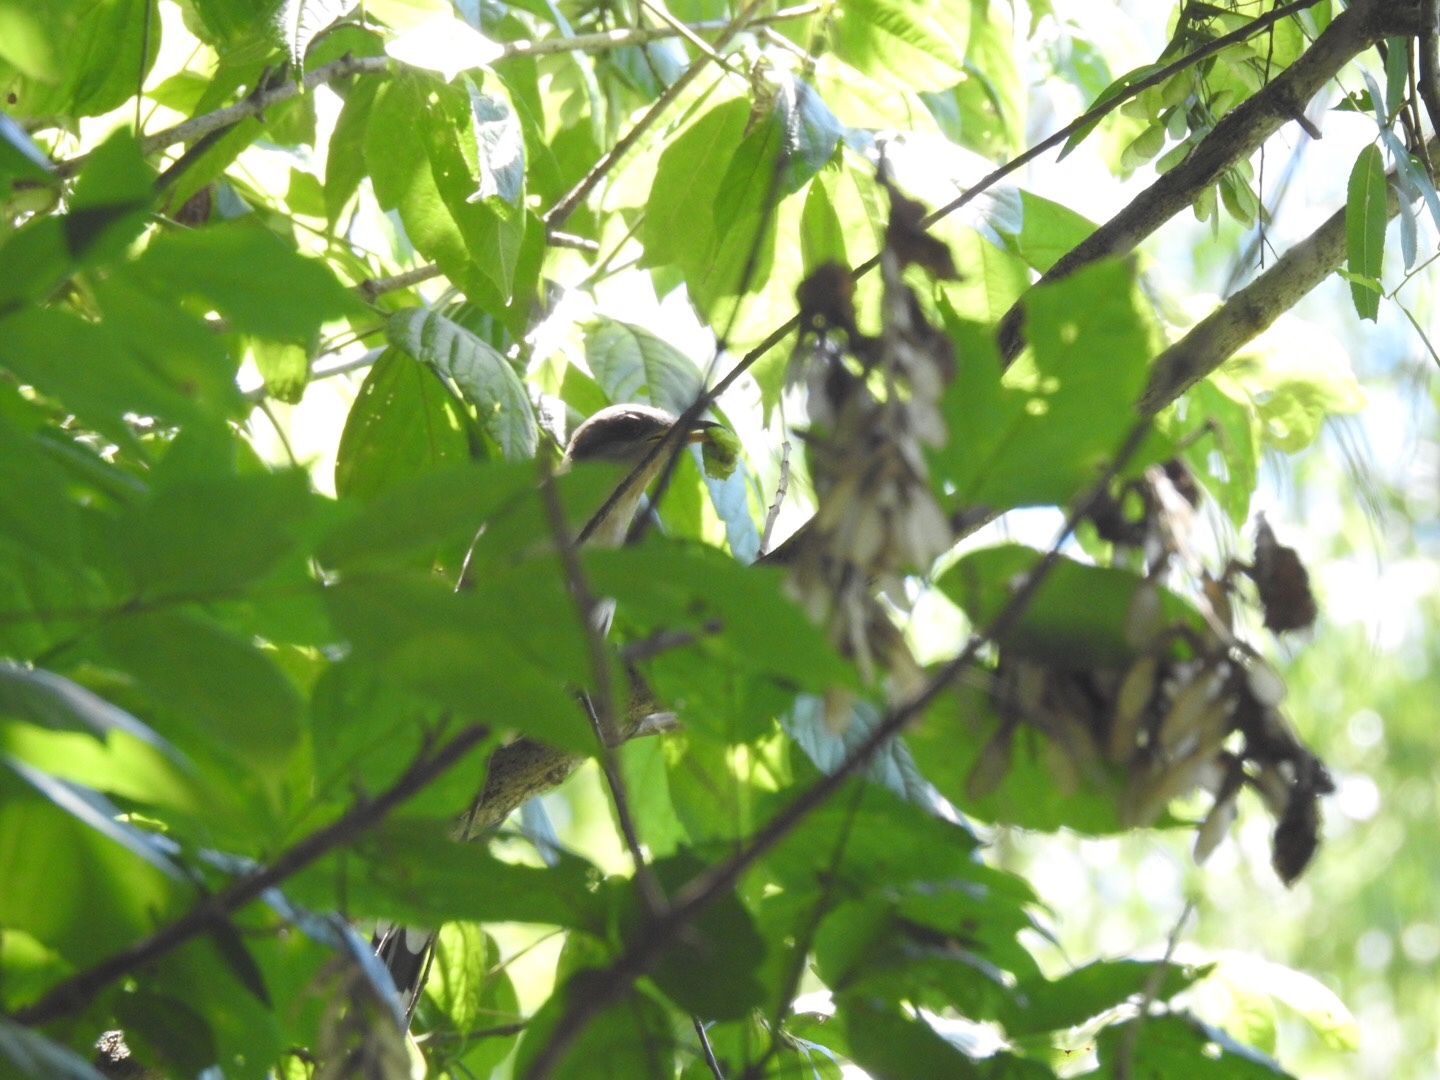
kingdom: Animalia
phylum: Chordata
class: Aves
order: Cuculiformes
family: Cuculidae
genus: Coccyzus
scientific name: Coccyzus americanus
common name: Yellow-billed cuckoo
